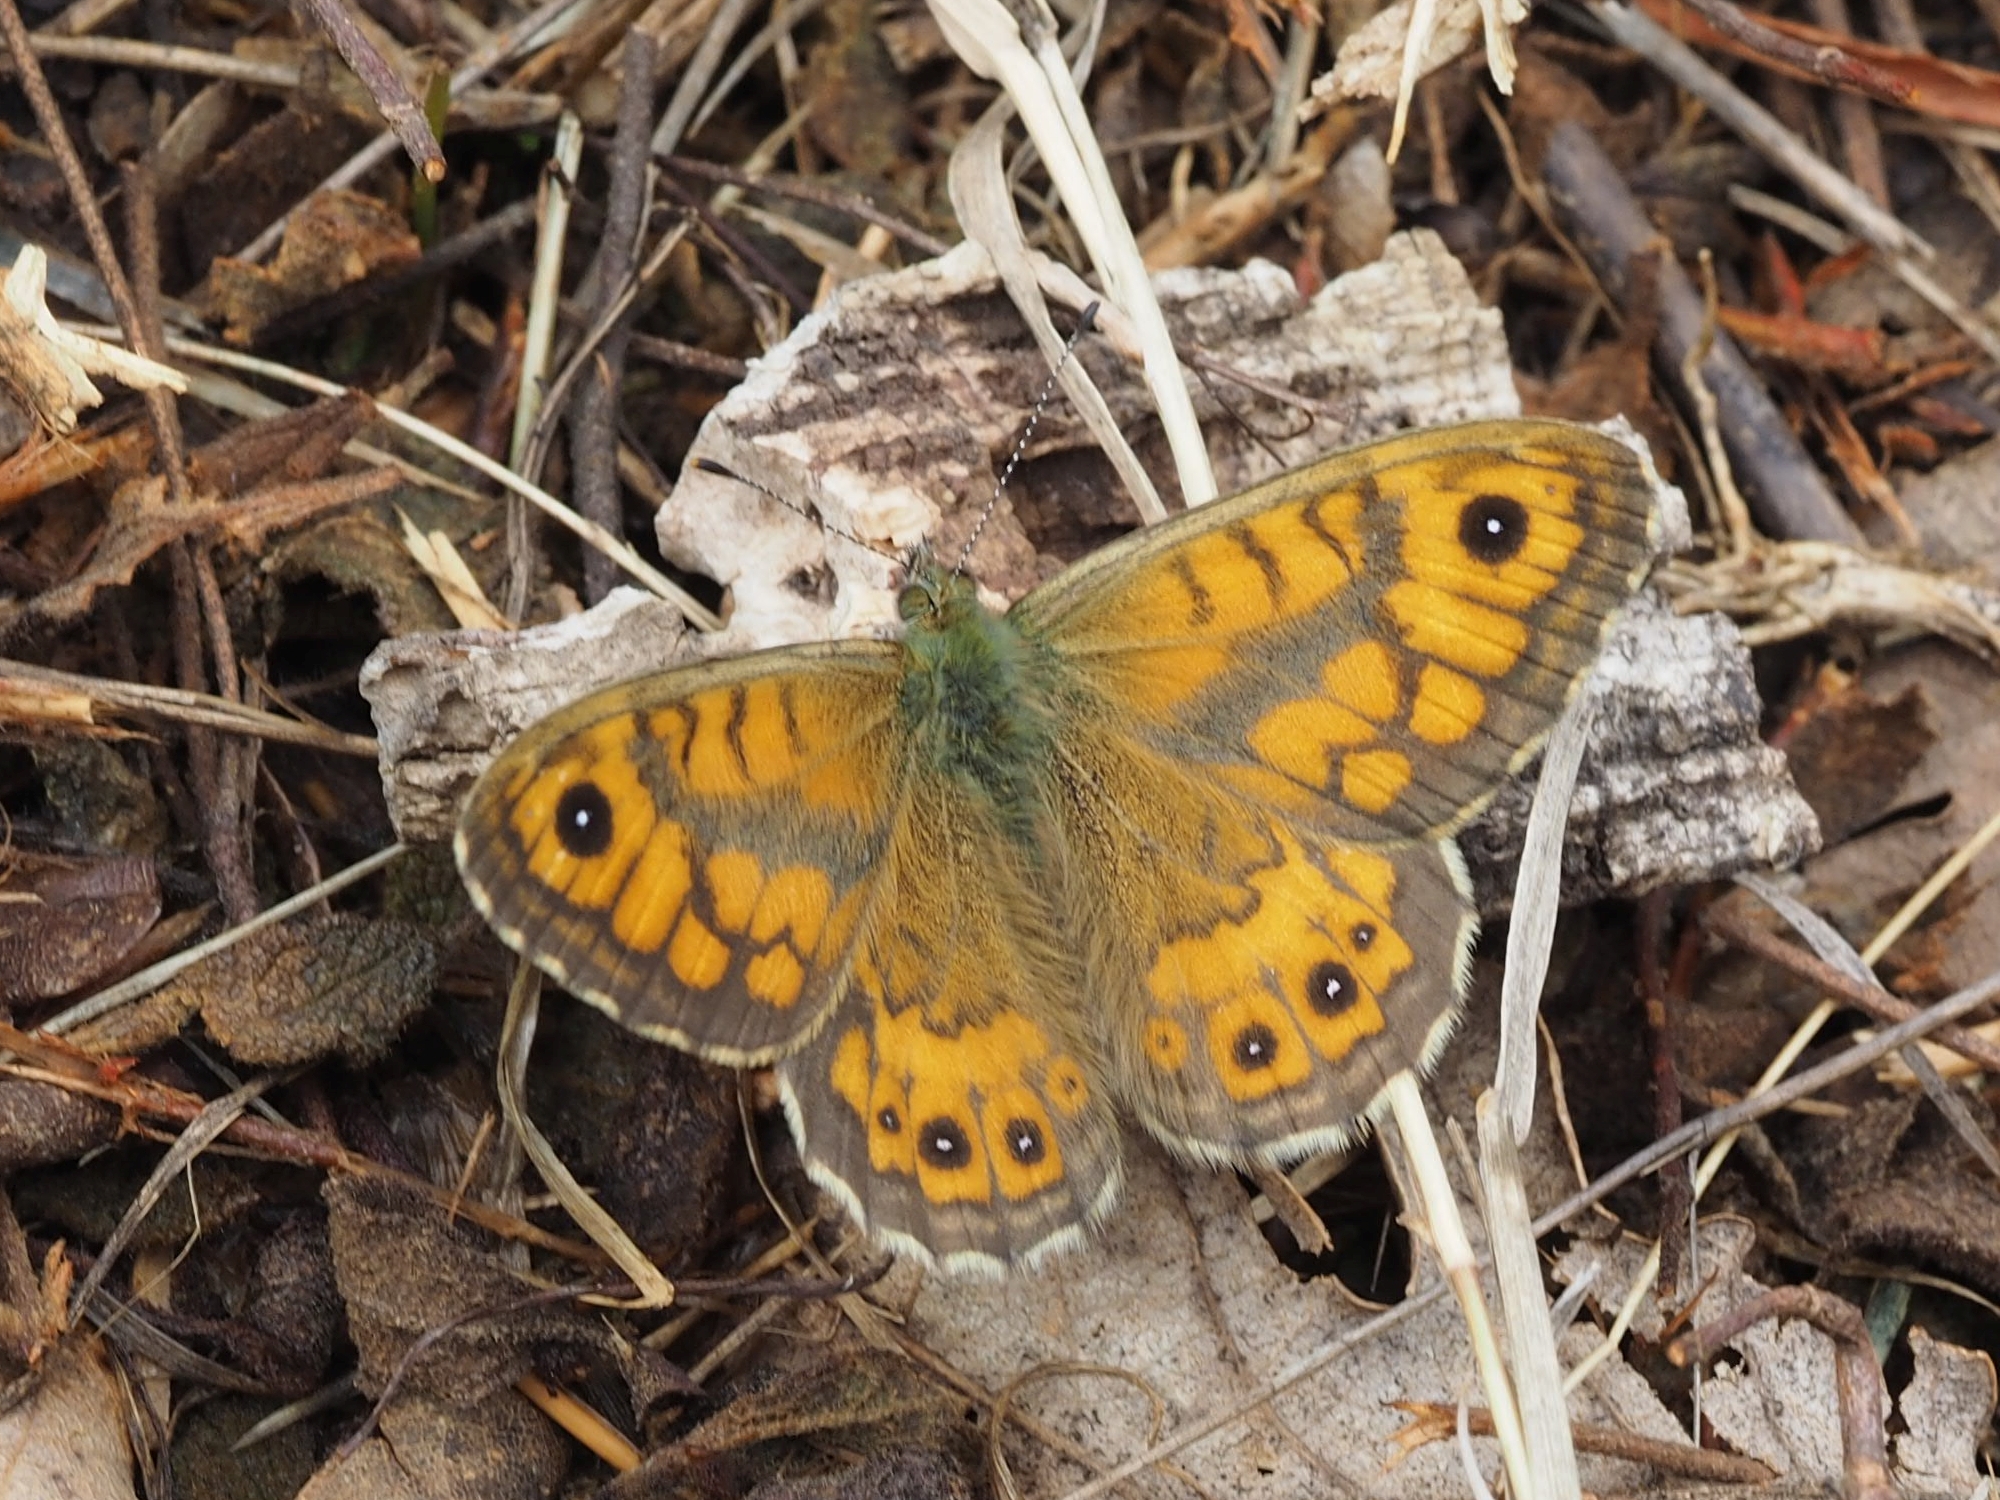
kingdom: Animalia
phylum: Arthropoda
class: Insecta
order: Lepidoptera
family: Nymphalidae
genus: Pararge
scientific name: Pararge Lasiommata megera
